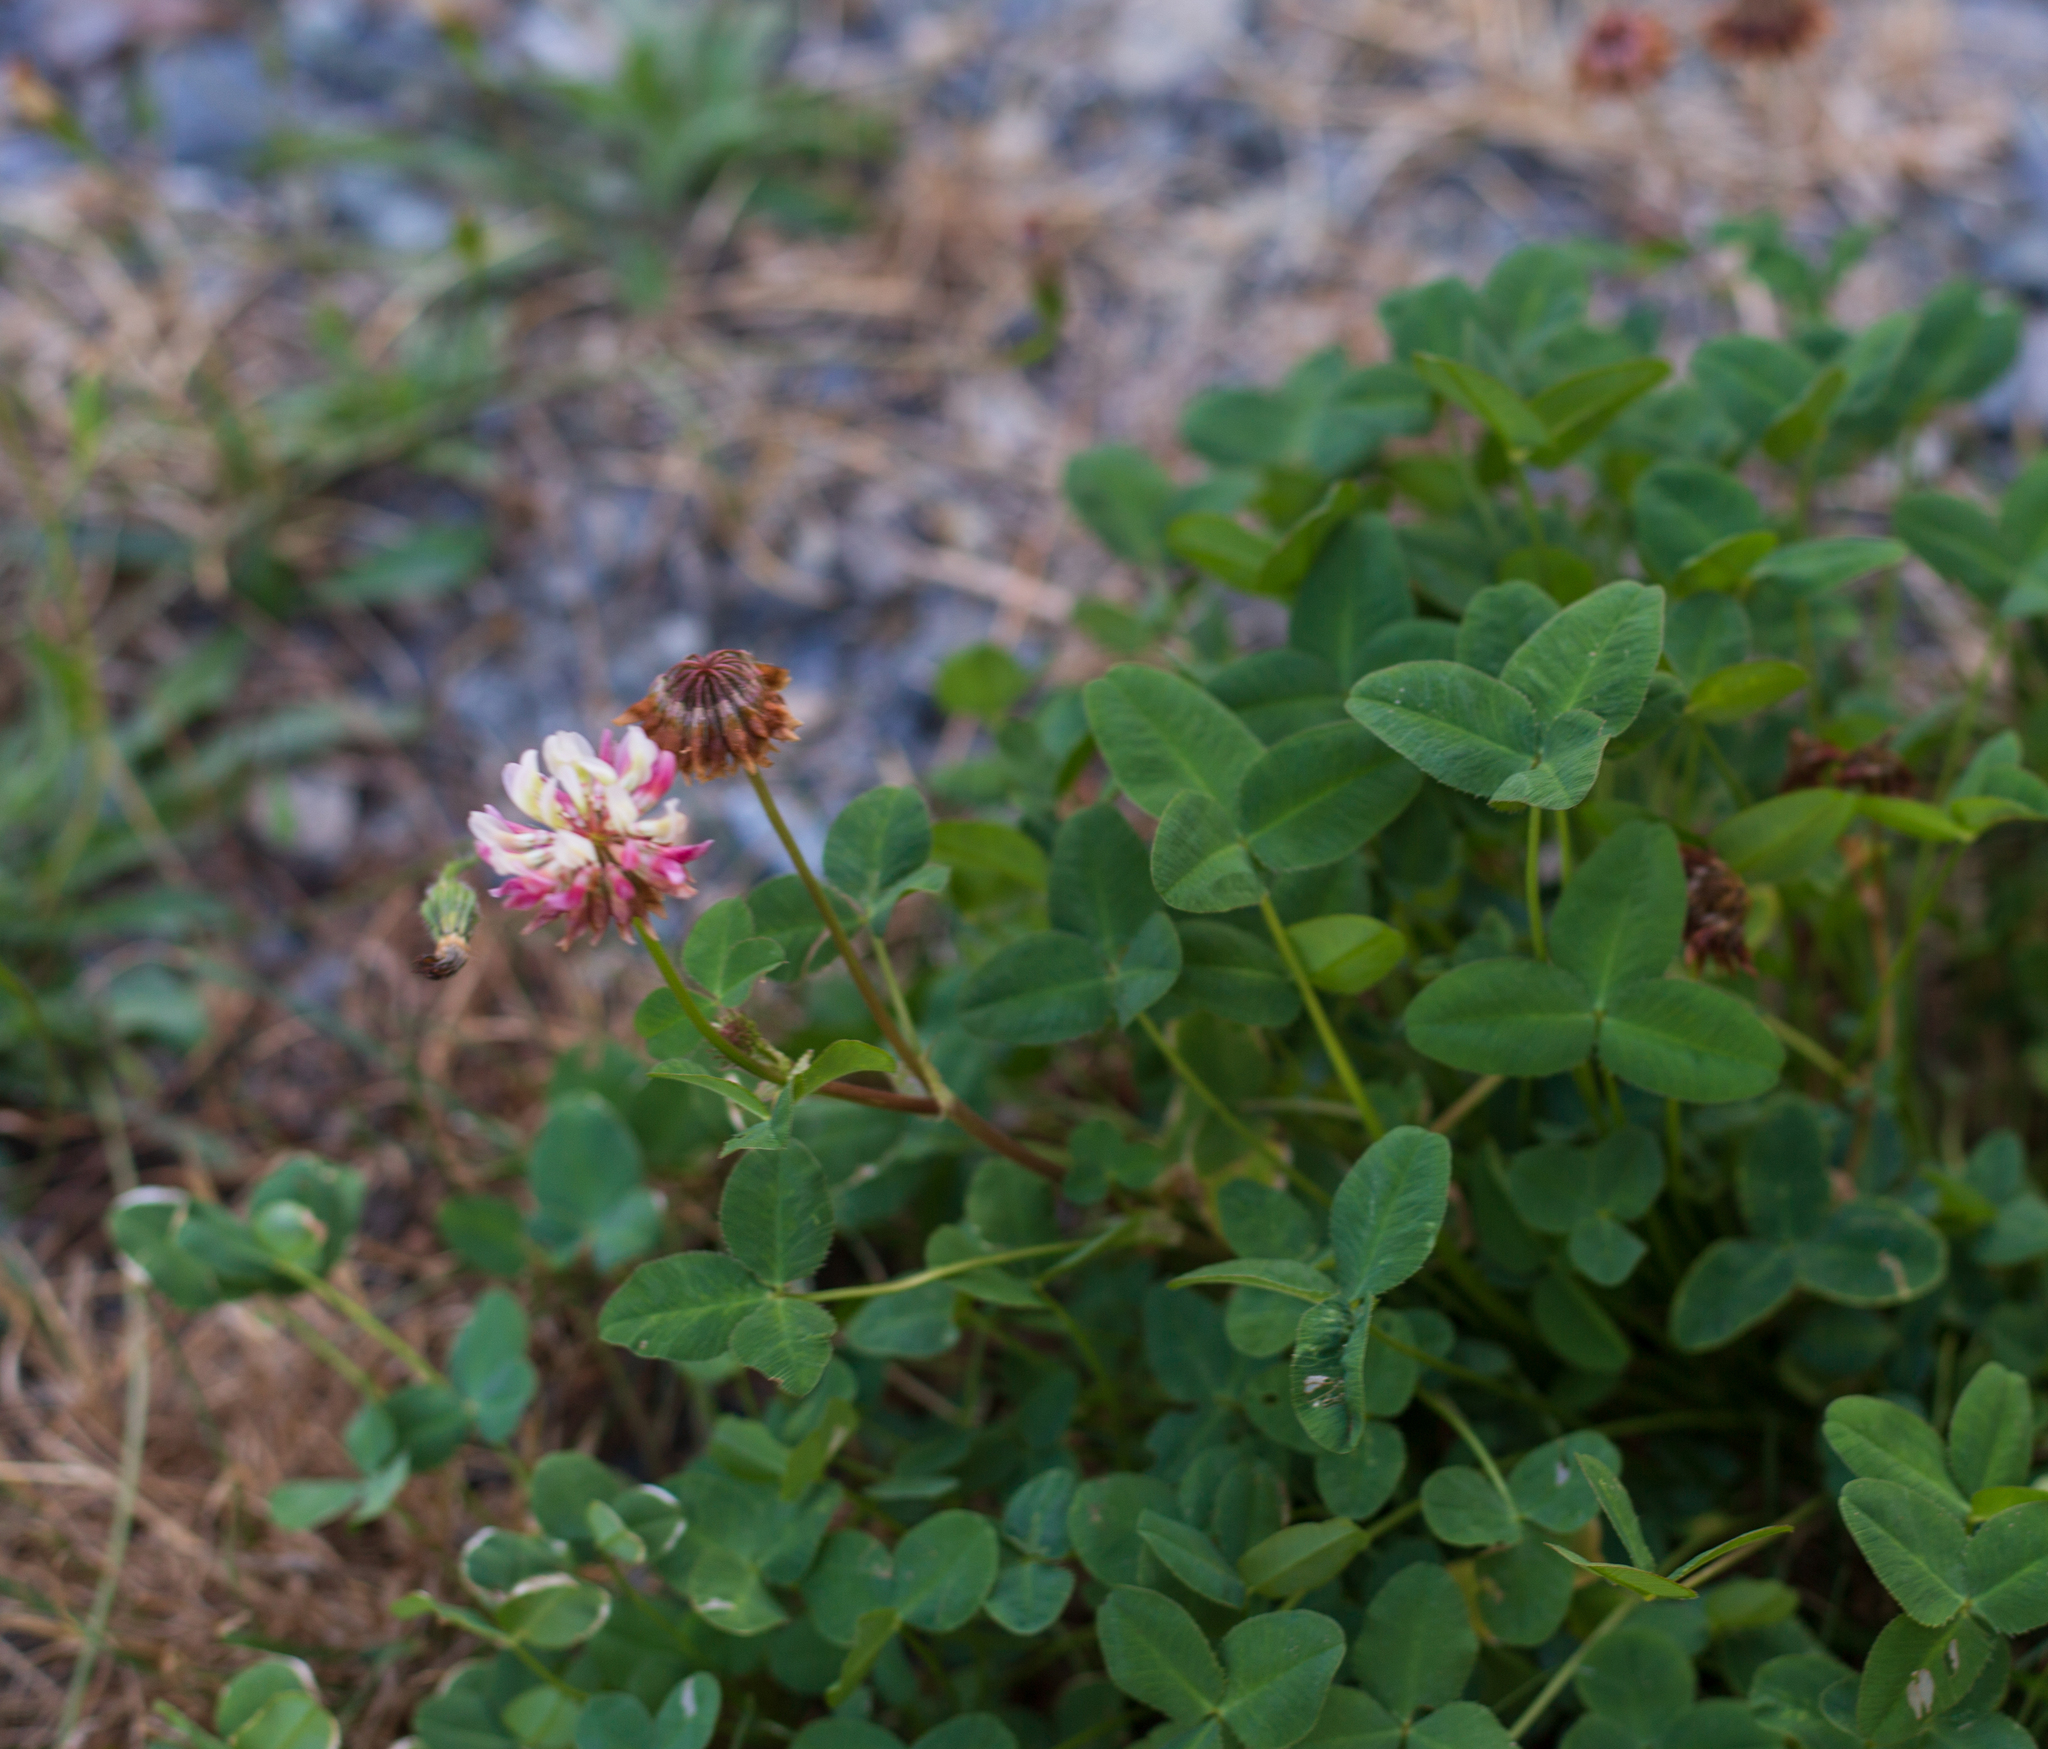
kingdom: Plantae
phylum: Tracheophyta
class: Magnoliopsida
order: Fabales
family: Fabaceae
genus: Trifolium
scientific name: Trifolium hybridum
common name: Alsike clover
